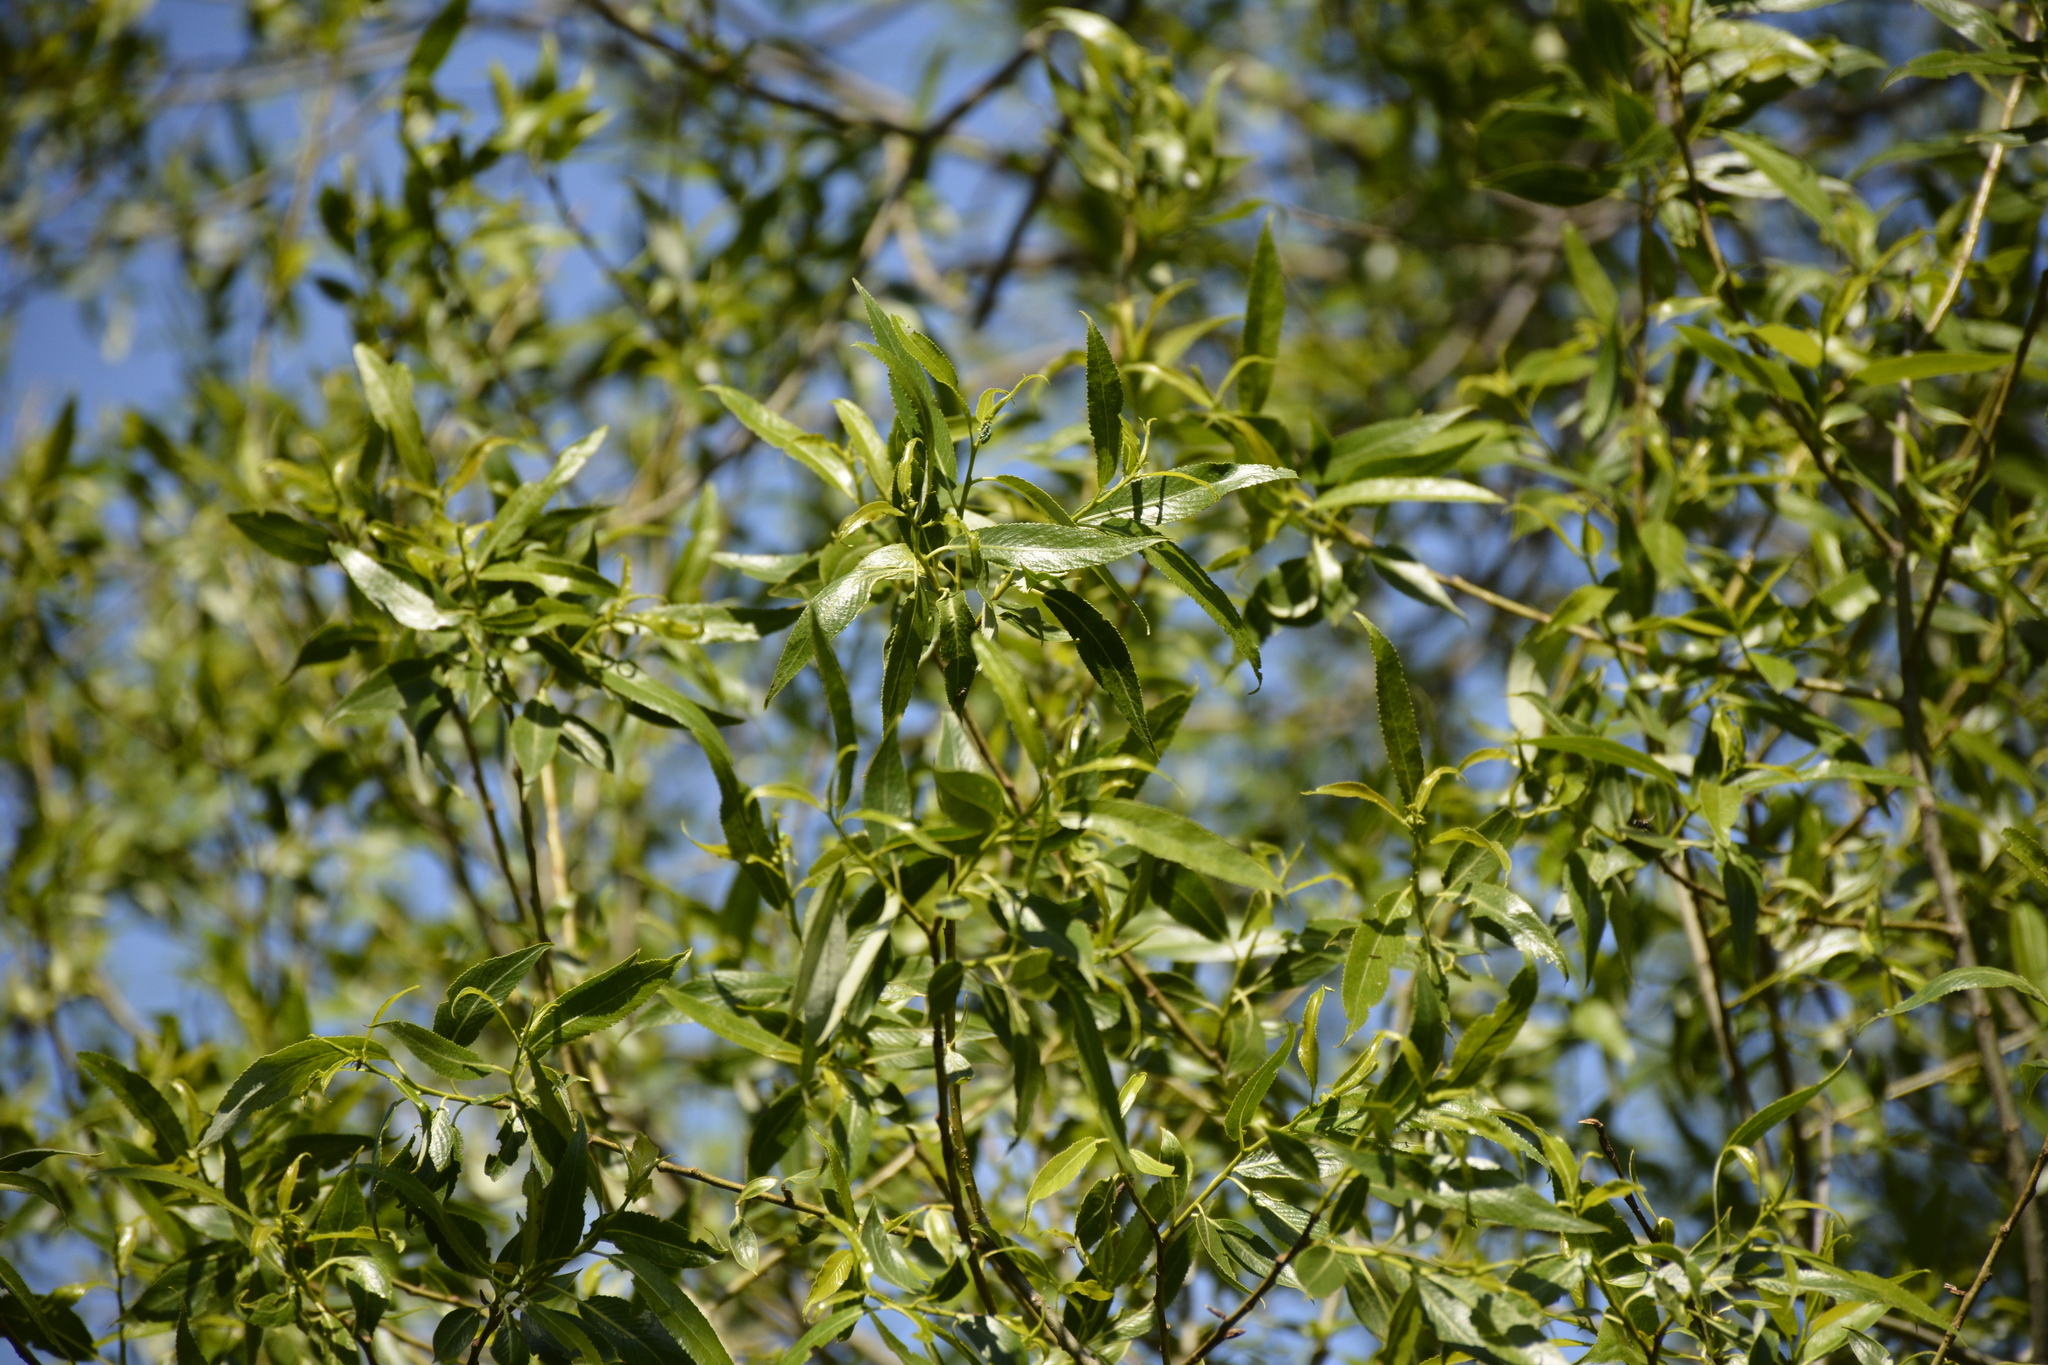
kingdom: Plantae
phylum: Tracheophyta
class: Magnoliopsida
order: Malpighiales
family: Salicaceae
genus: Salix
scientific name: Salix alba
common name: White willow
